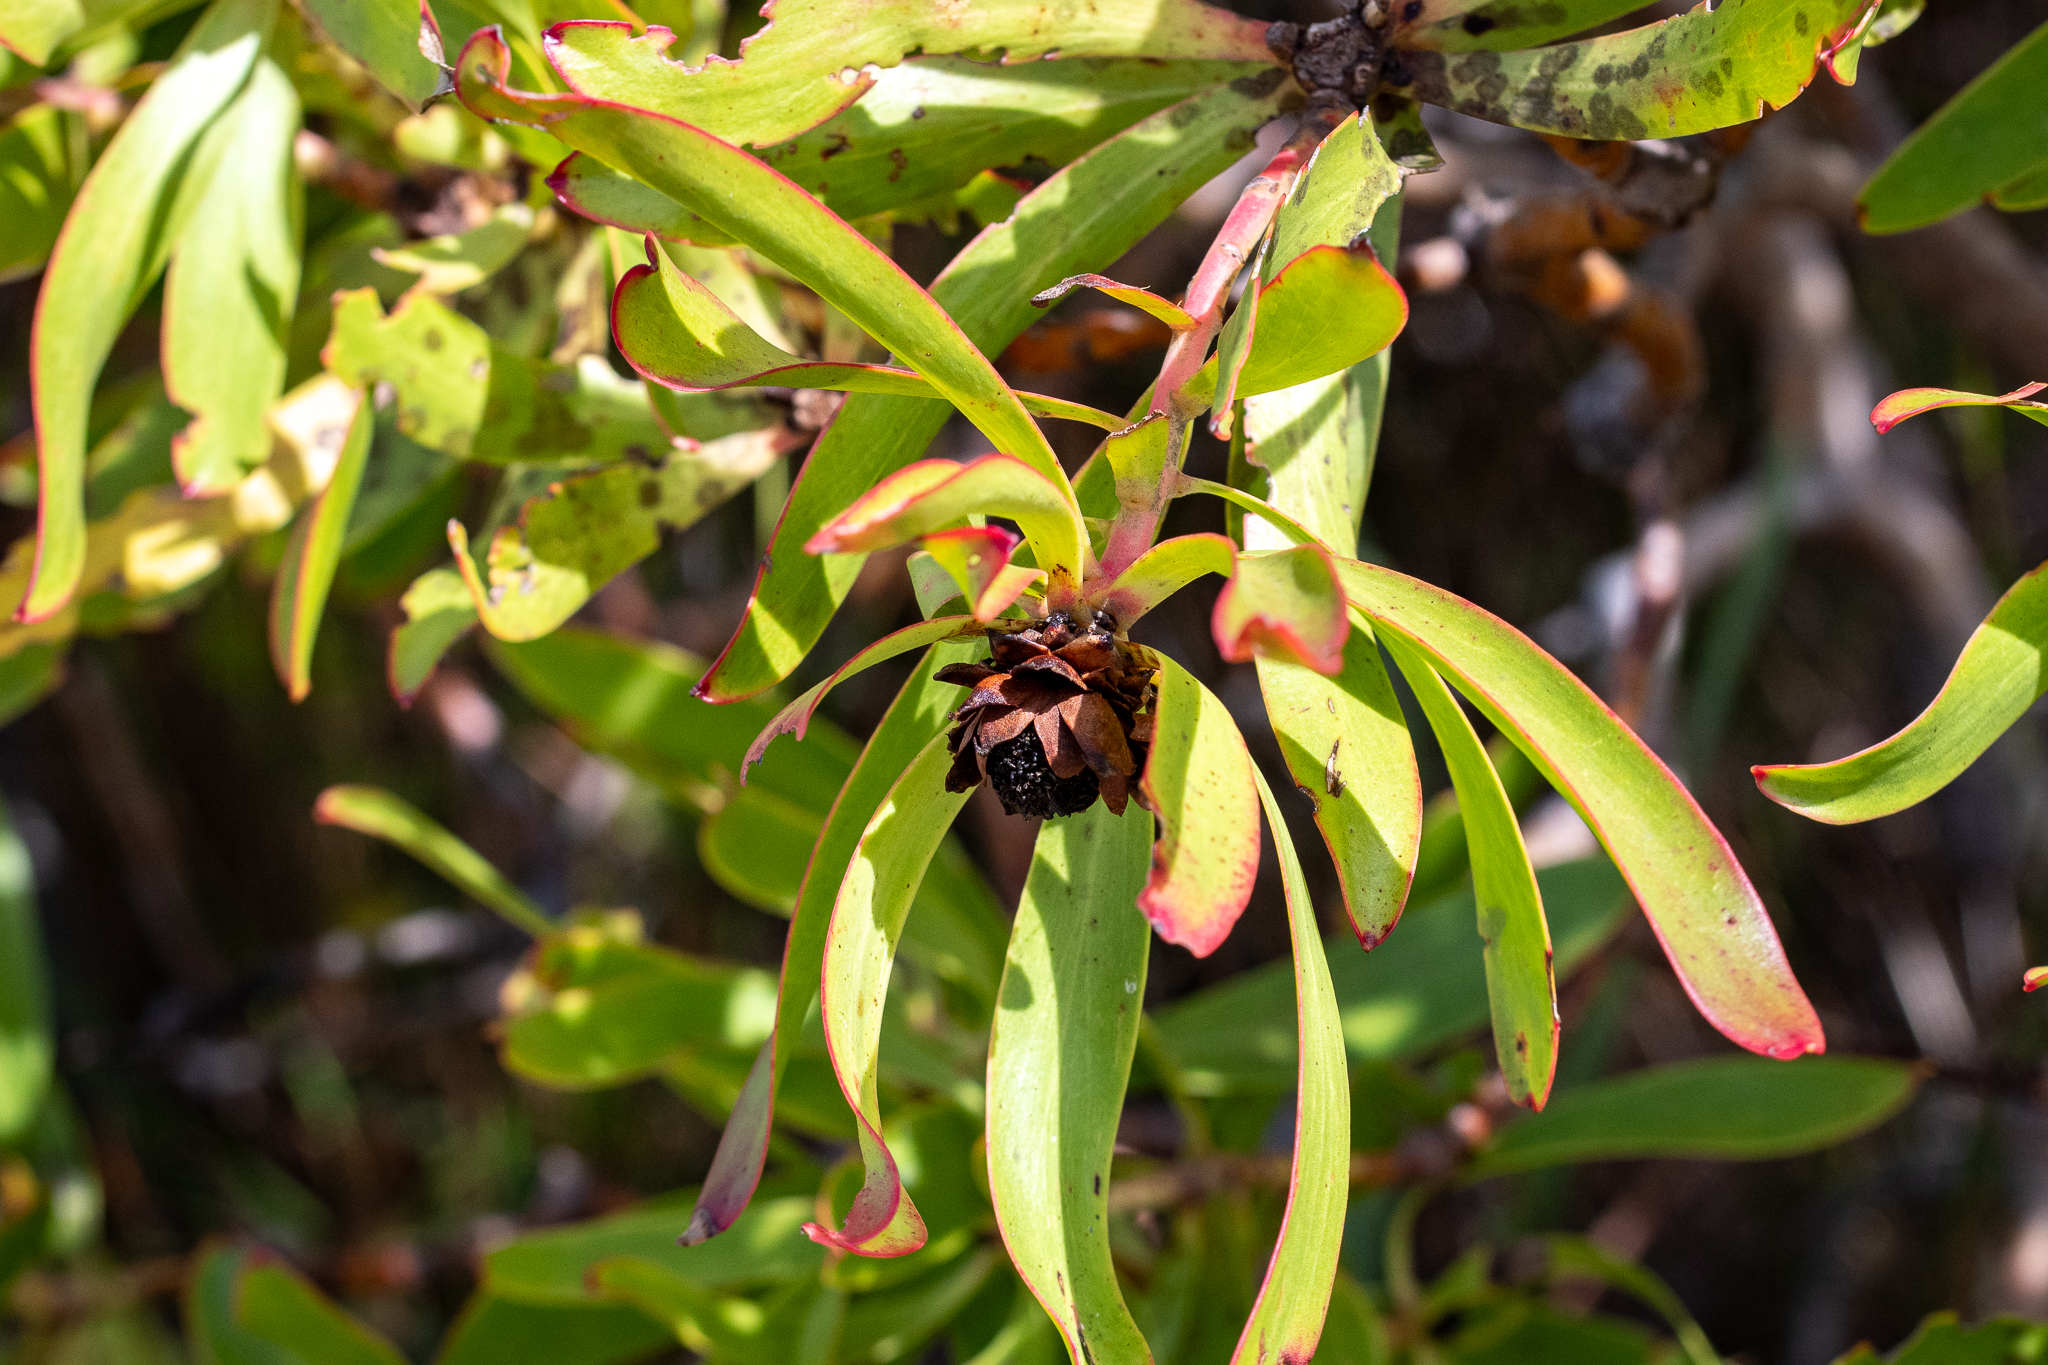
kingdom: Plantae
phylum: Tracheophyta
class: Magnoliopsida
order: Proteales
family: Proteaceae
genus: Leucadendron
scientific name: Leucadendron microcephalum
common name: Oilbract conebush
